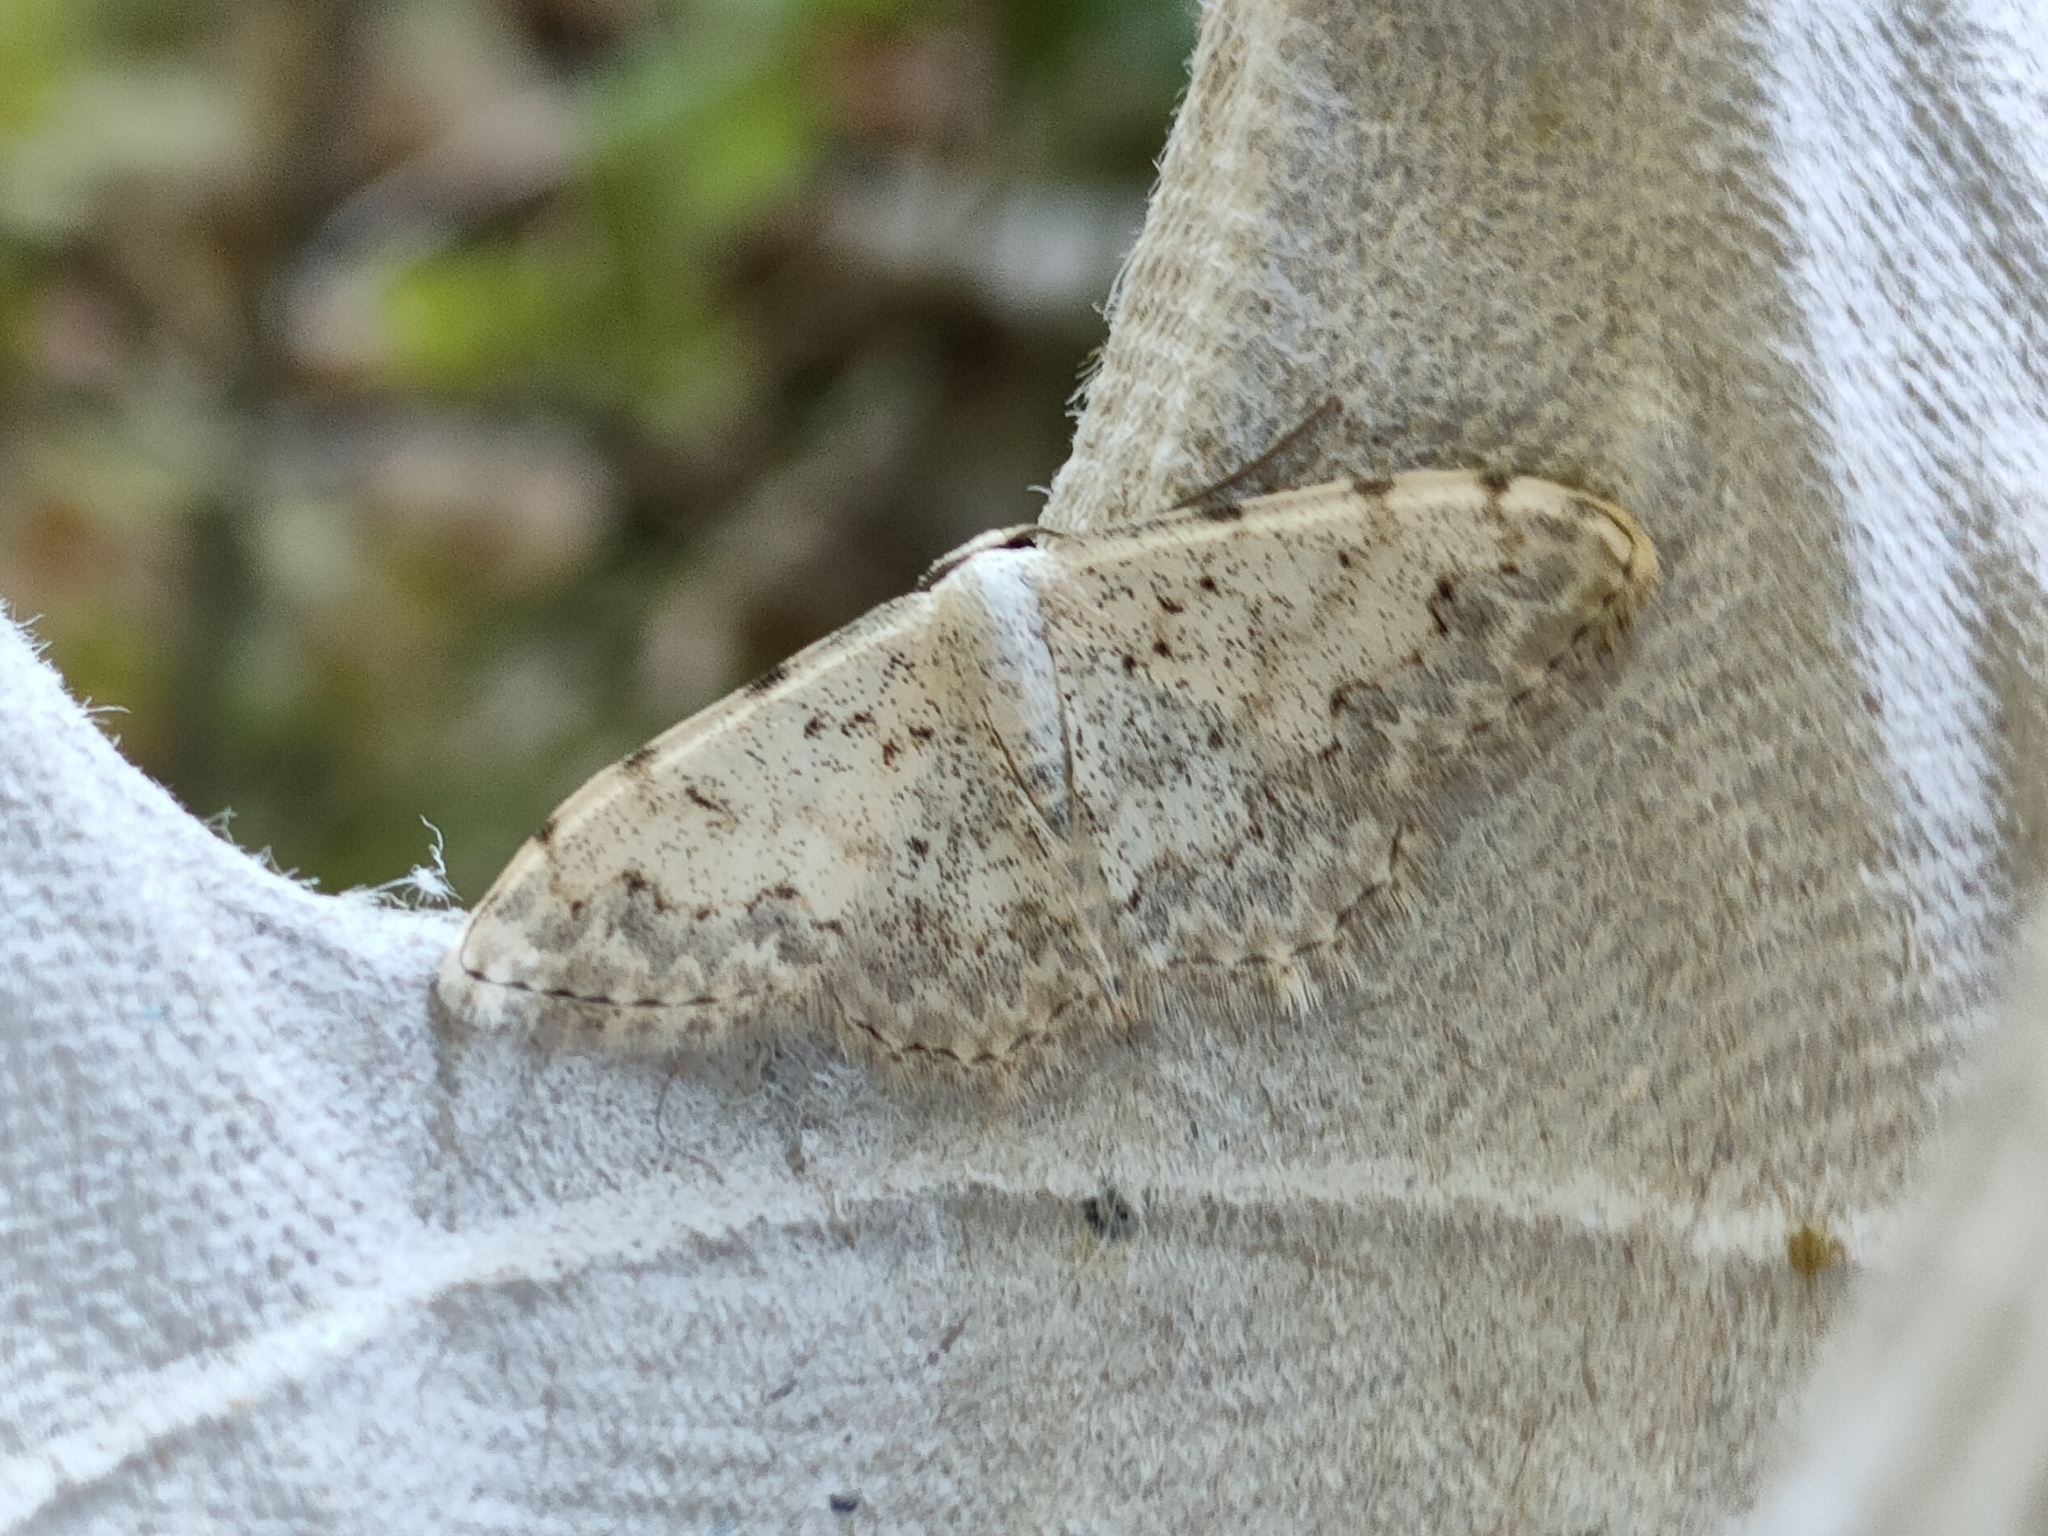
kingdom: Animalia
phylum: Arthropoda
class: Insecta
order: Lepidoptera
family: Geometridae
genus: Scopula
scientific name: Scopula submutata
